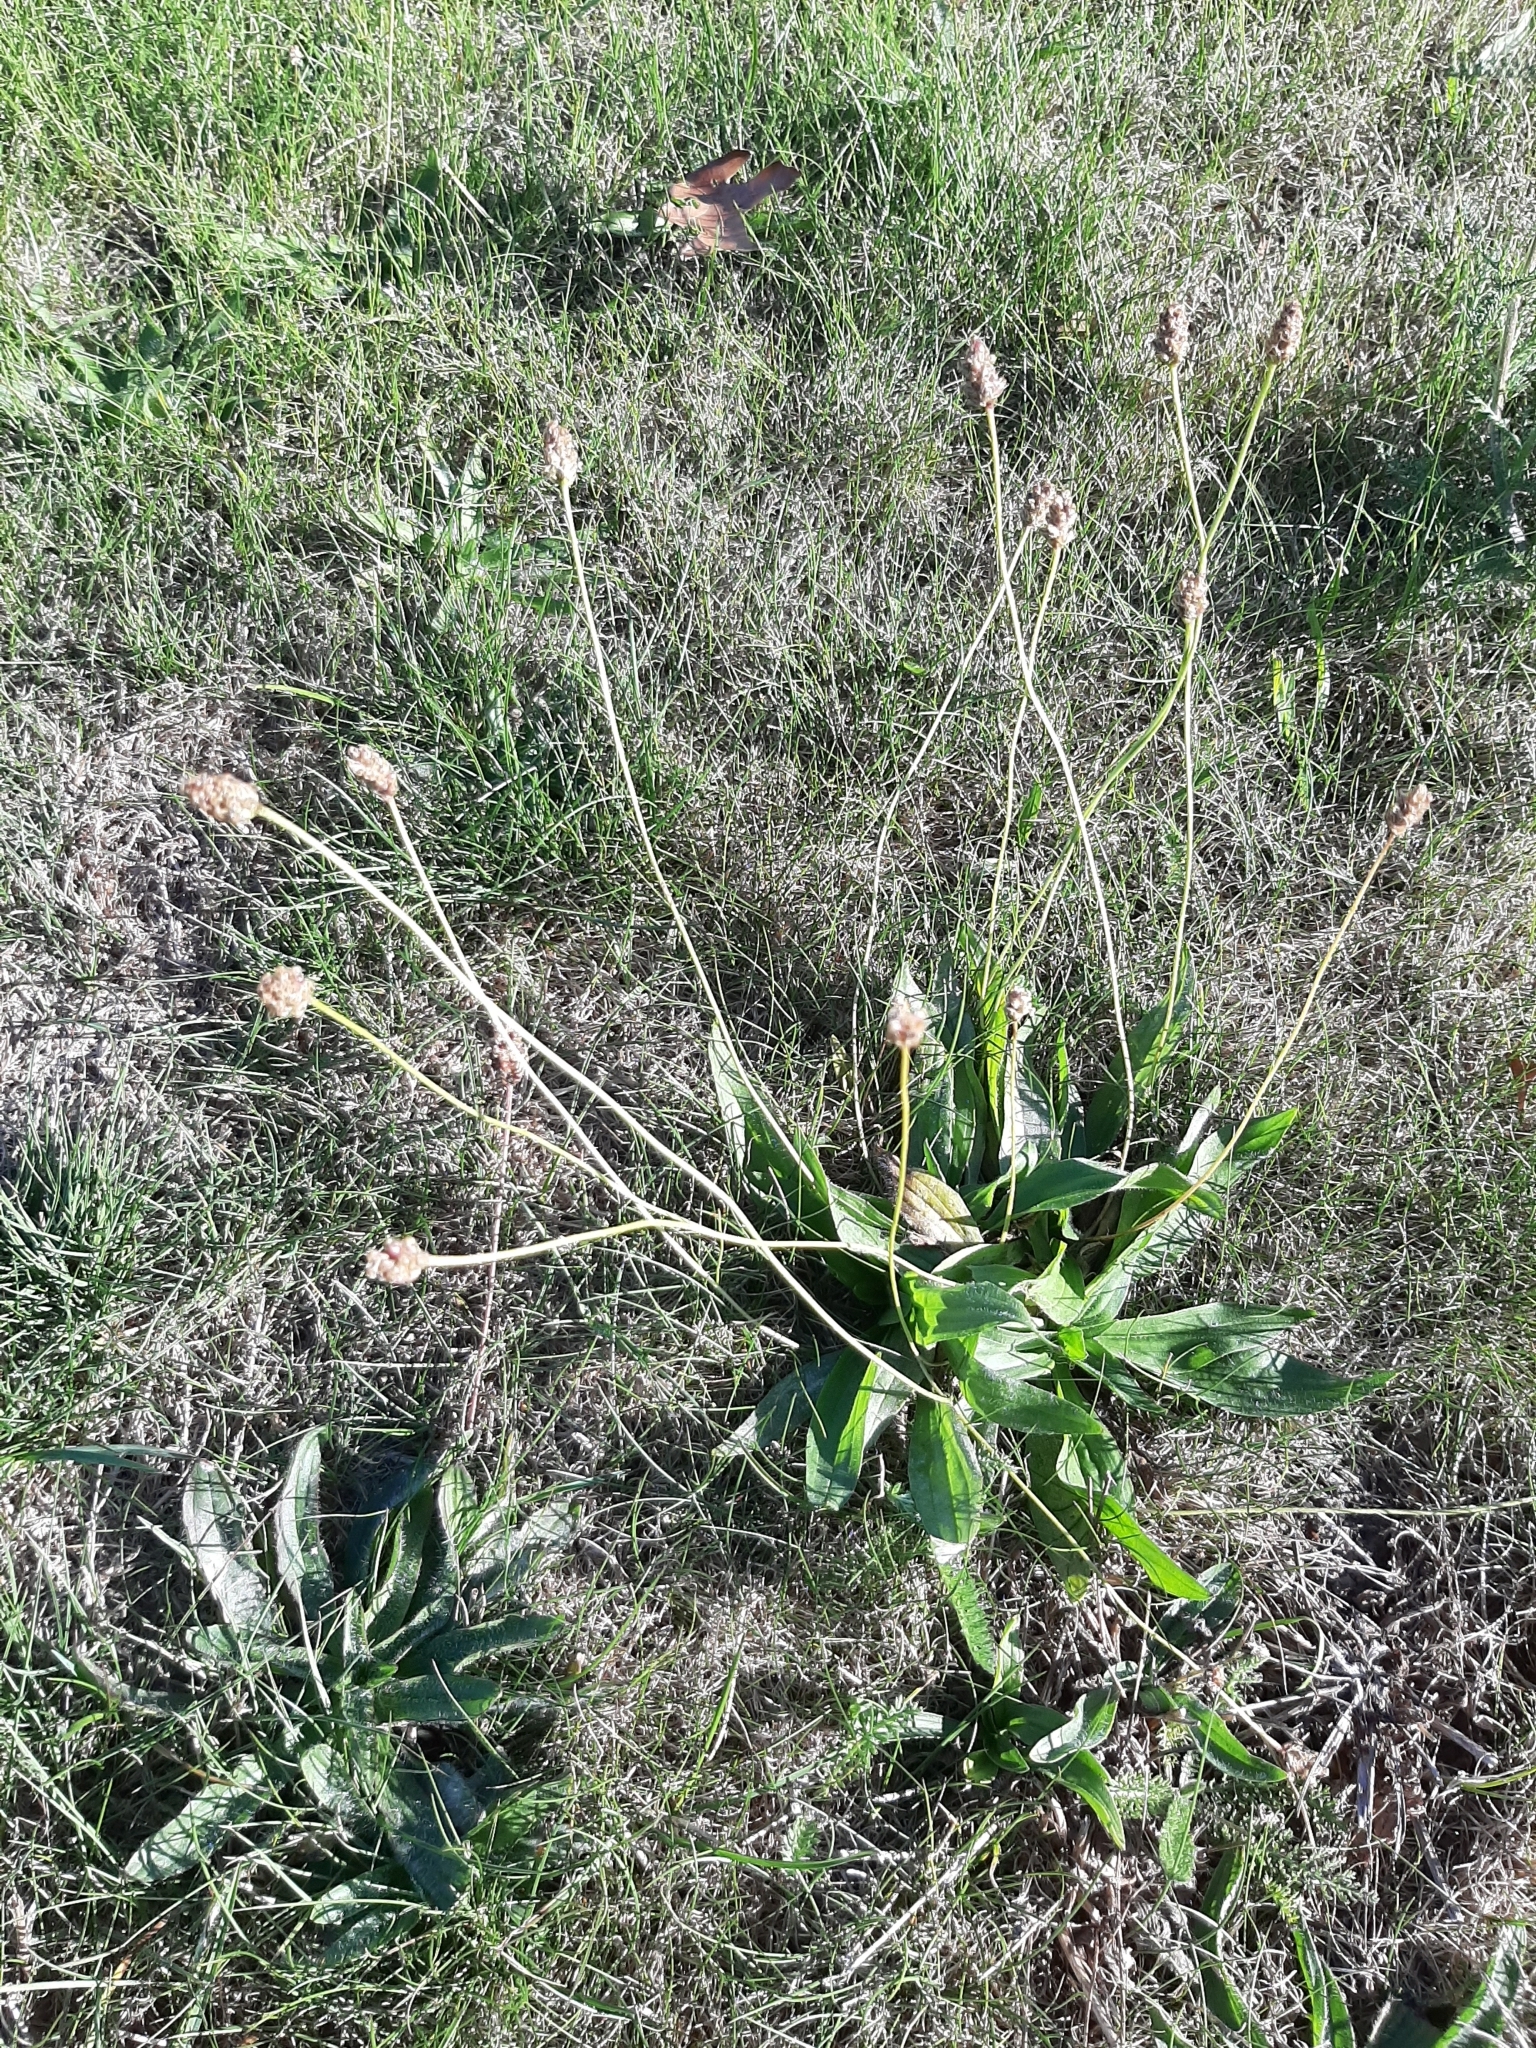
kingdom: Plantae
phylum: Tracheophyta
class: Magnoliopsida
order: Lamiales
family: Plantaginaceae
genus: Plantago
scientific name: Plantago lanceolata
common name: Ribwort plantain
